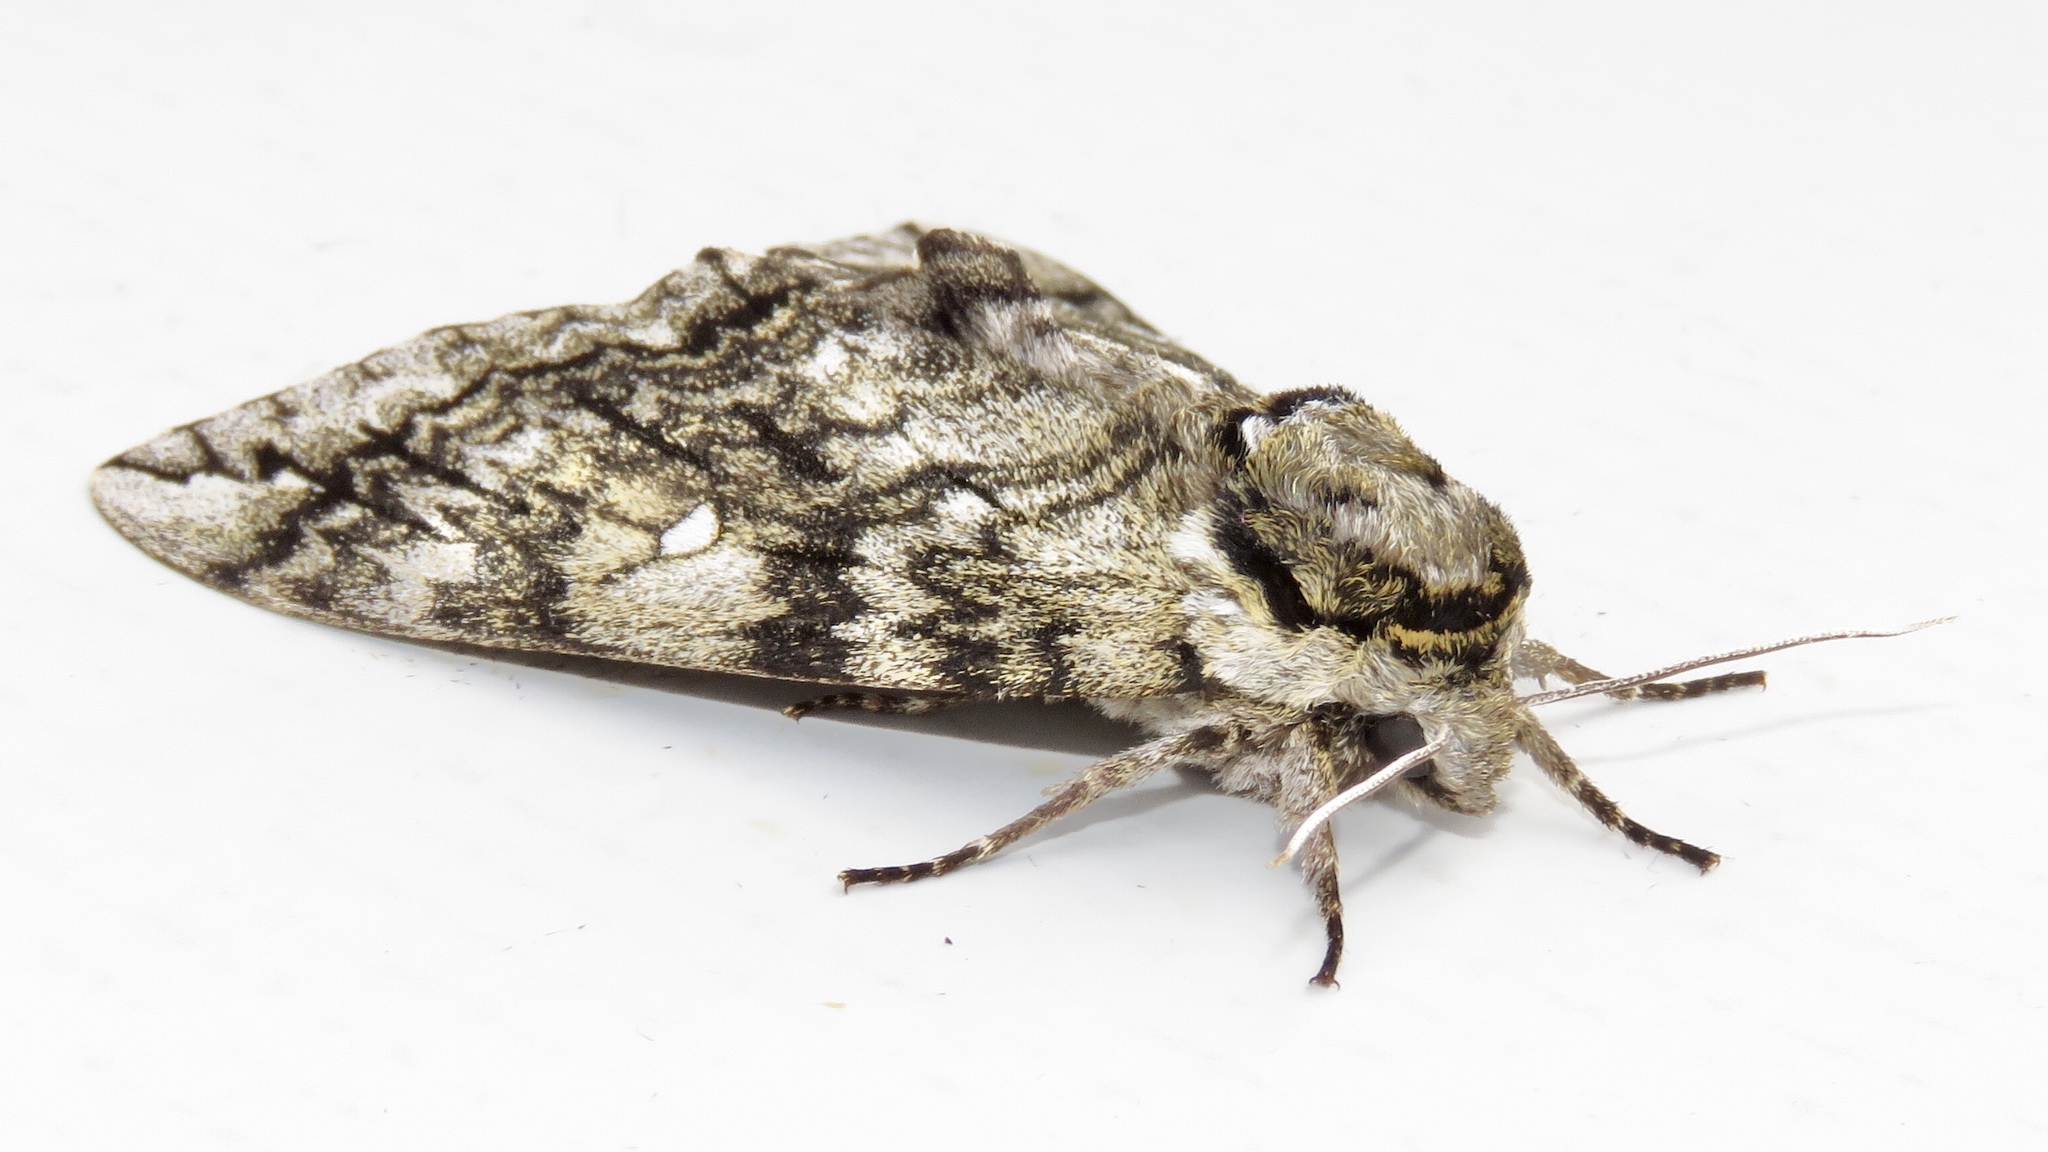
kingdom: Animalia
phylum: Arthropoda
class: Insecta
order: Lepidoptera
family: Sphingidae
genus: Ceratomia
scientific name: Ceratomia undulosa
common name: Waved sphinx
